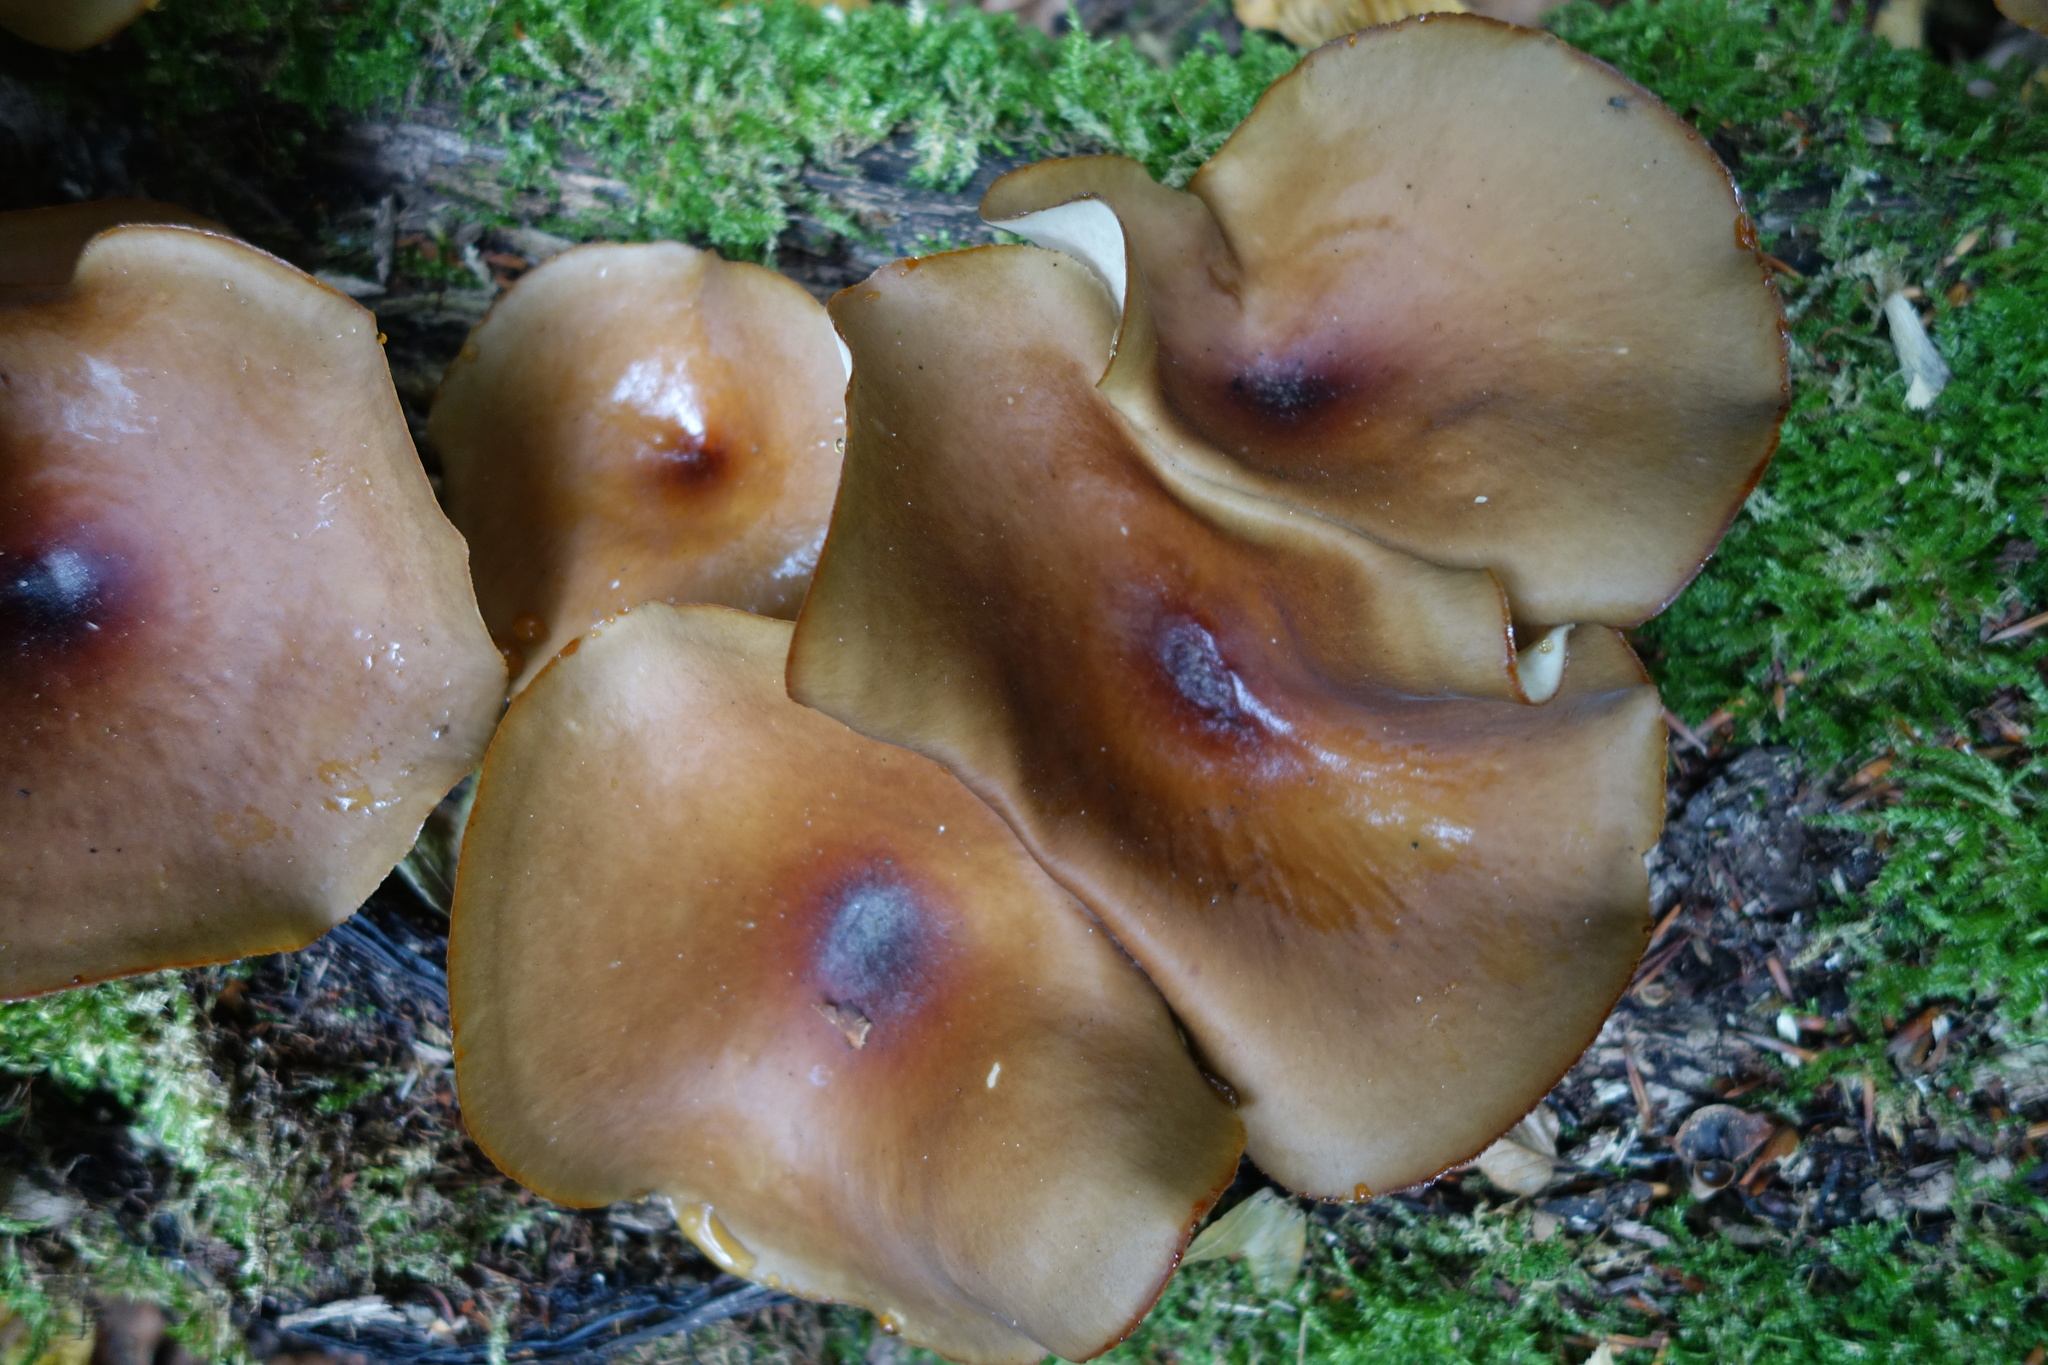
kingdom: Fungi
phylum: Basidiomycota
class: Agaricomycetes
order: Polyporales
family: Polyporaceae
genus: Picipes
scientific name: Picipes badius
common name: Bay polypore
